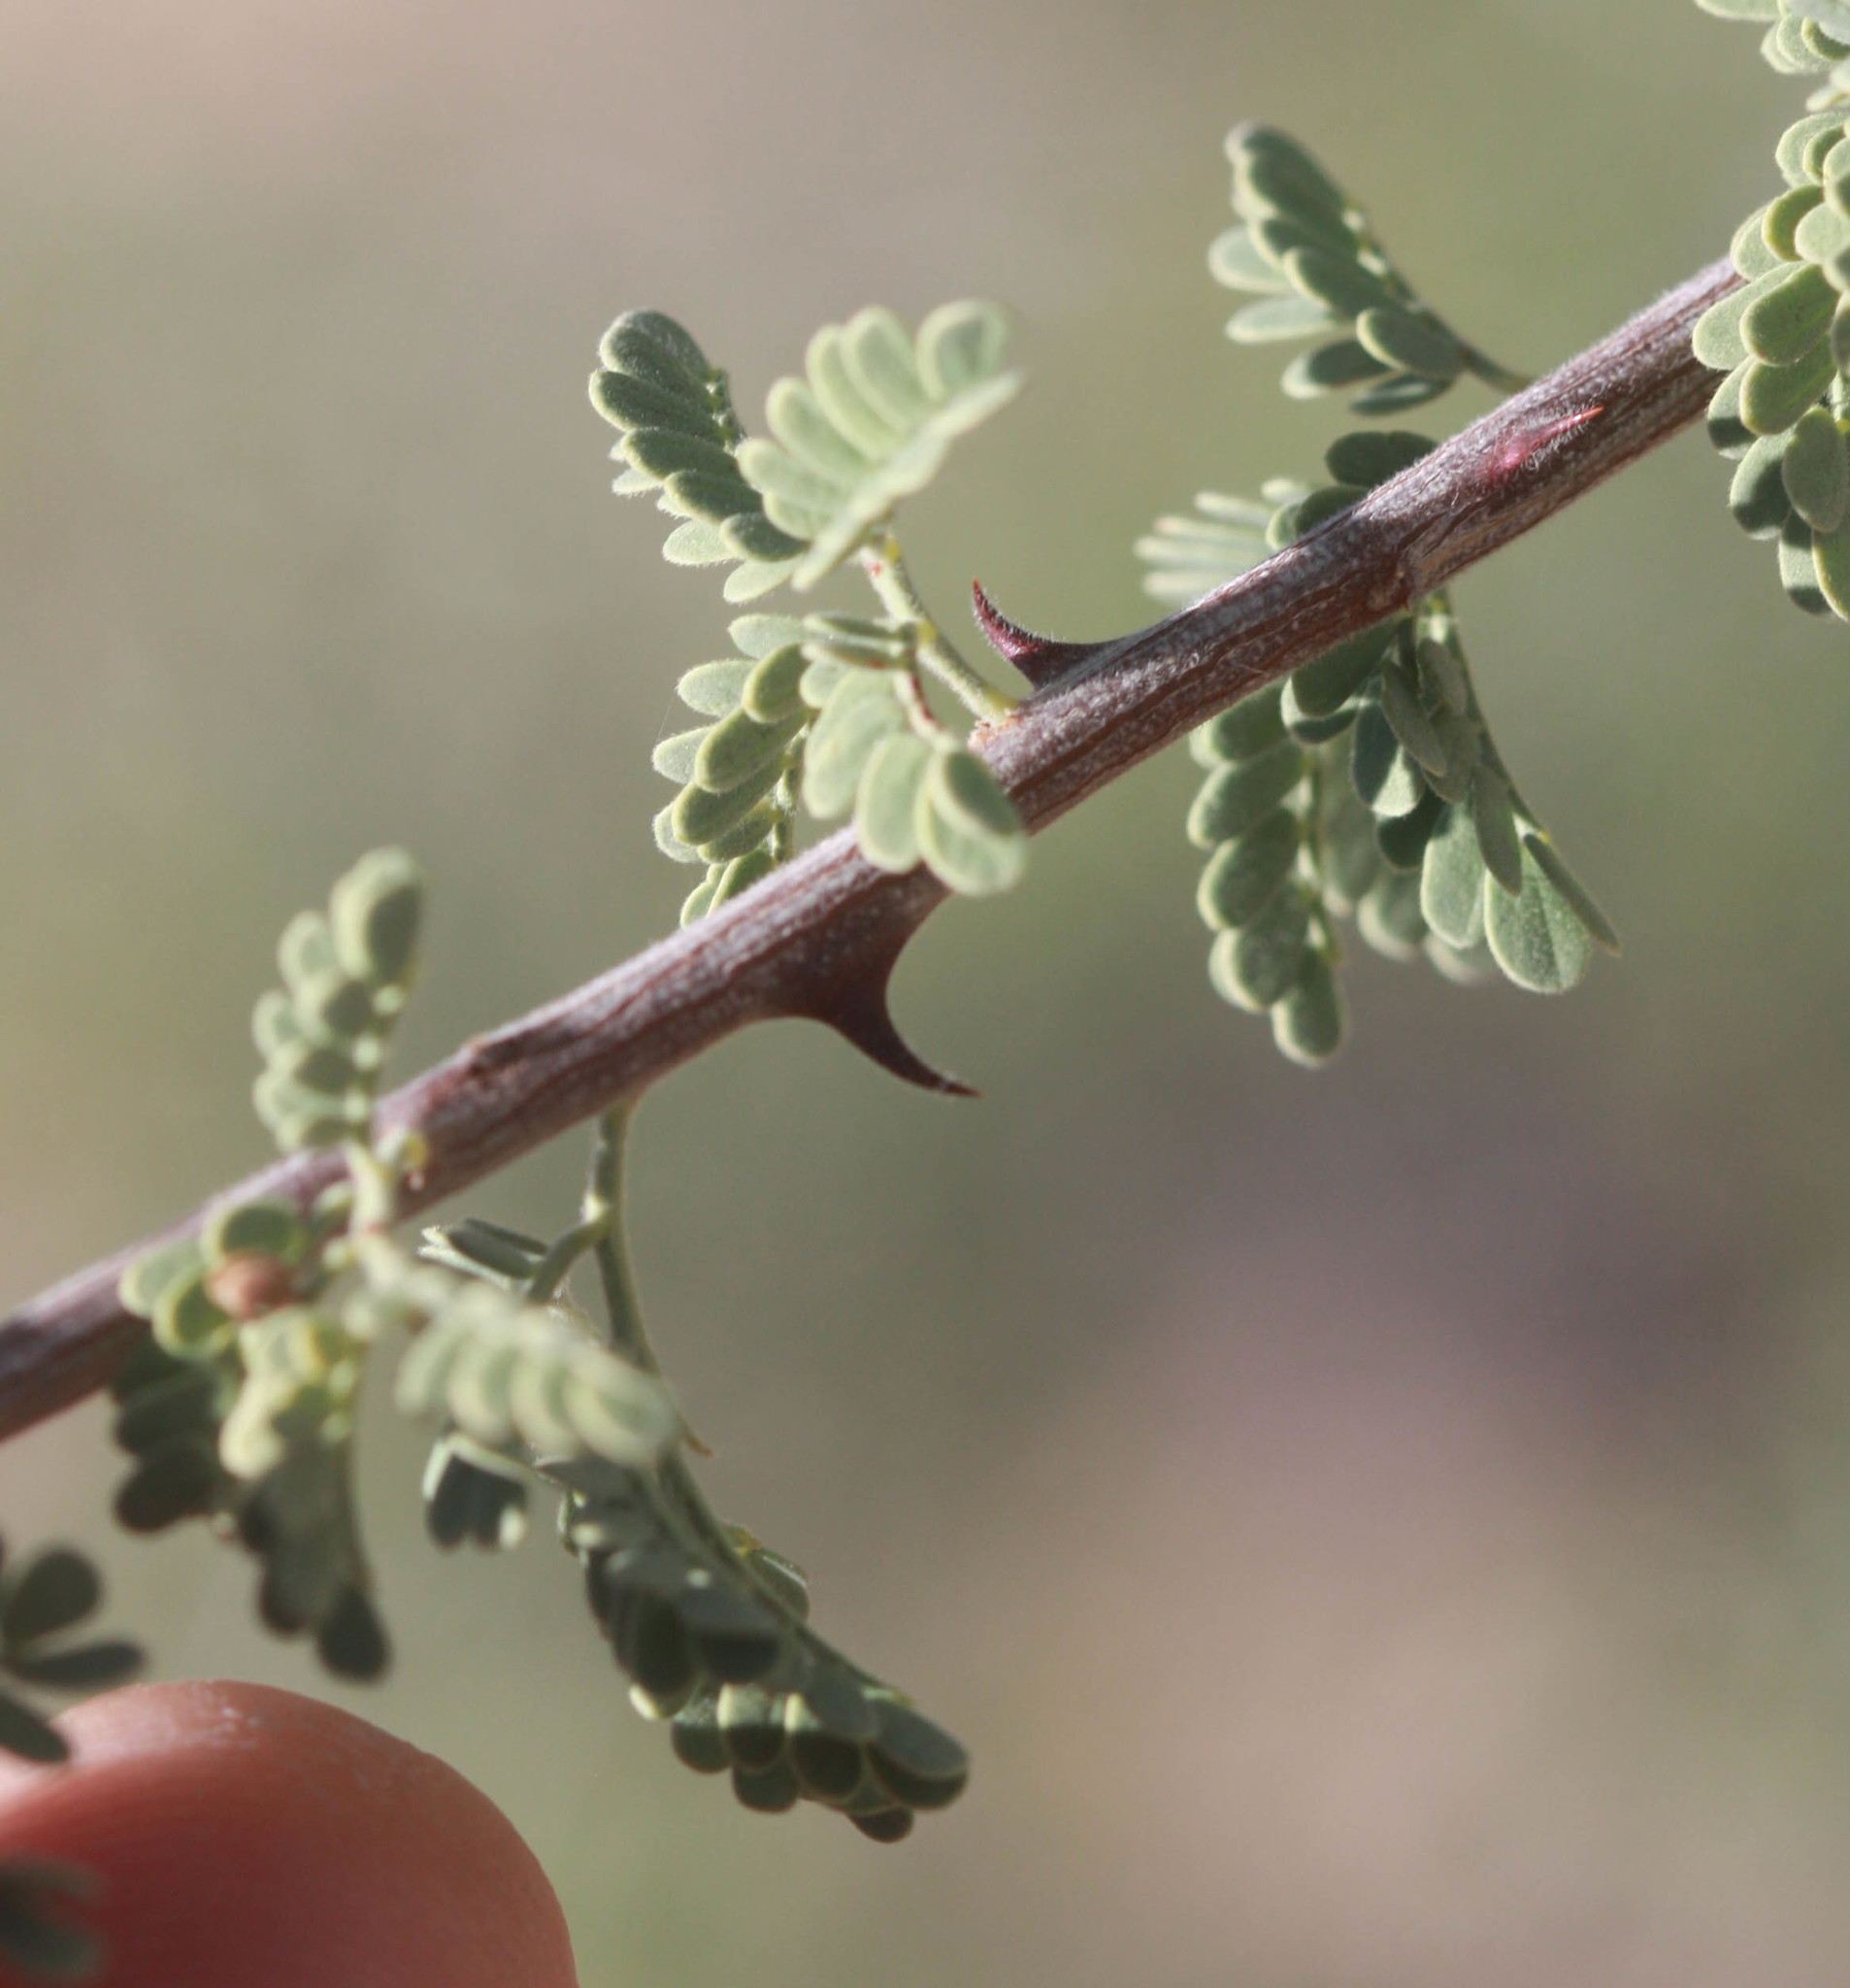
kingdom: Plantae
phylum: Tracheophyta
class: Magnoliopsida
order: Fabales
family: Fabaceae
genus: Senegalia
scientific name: Senegalia greggii
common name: Texas-mimosa
